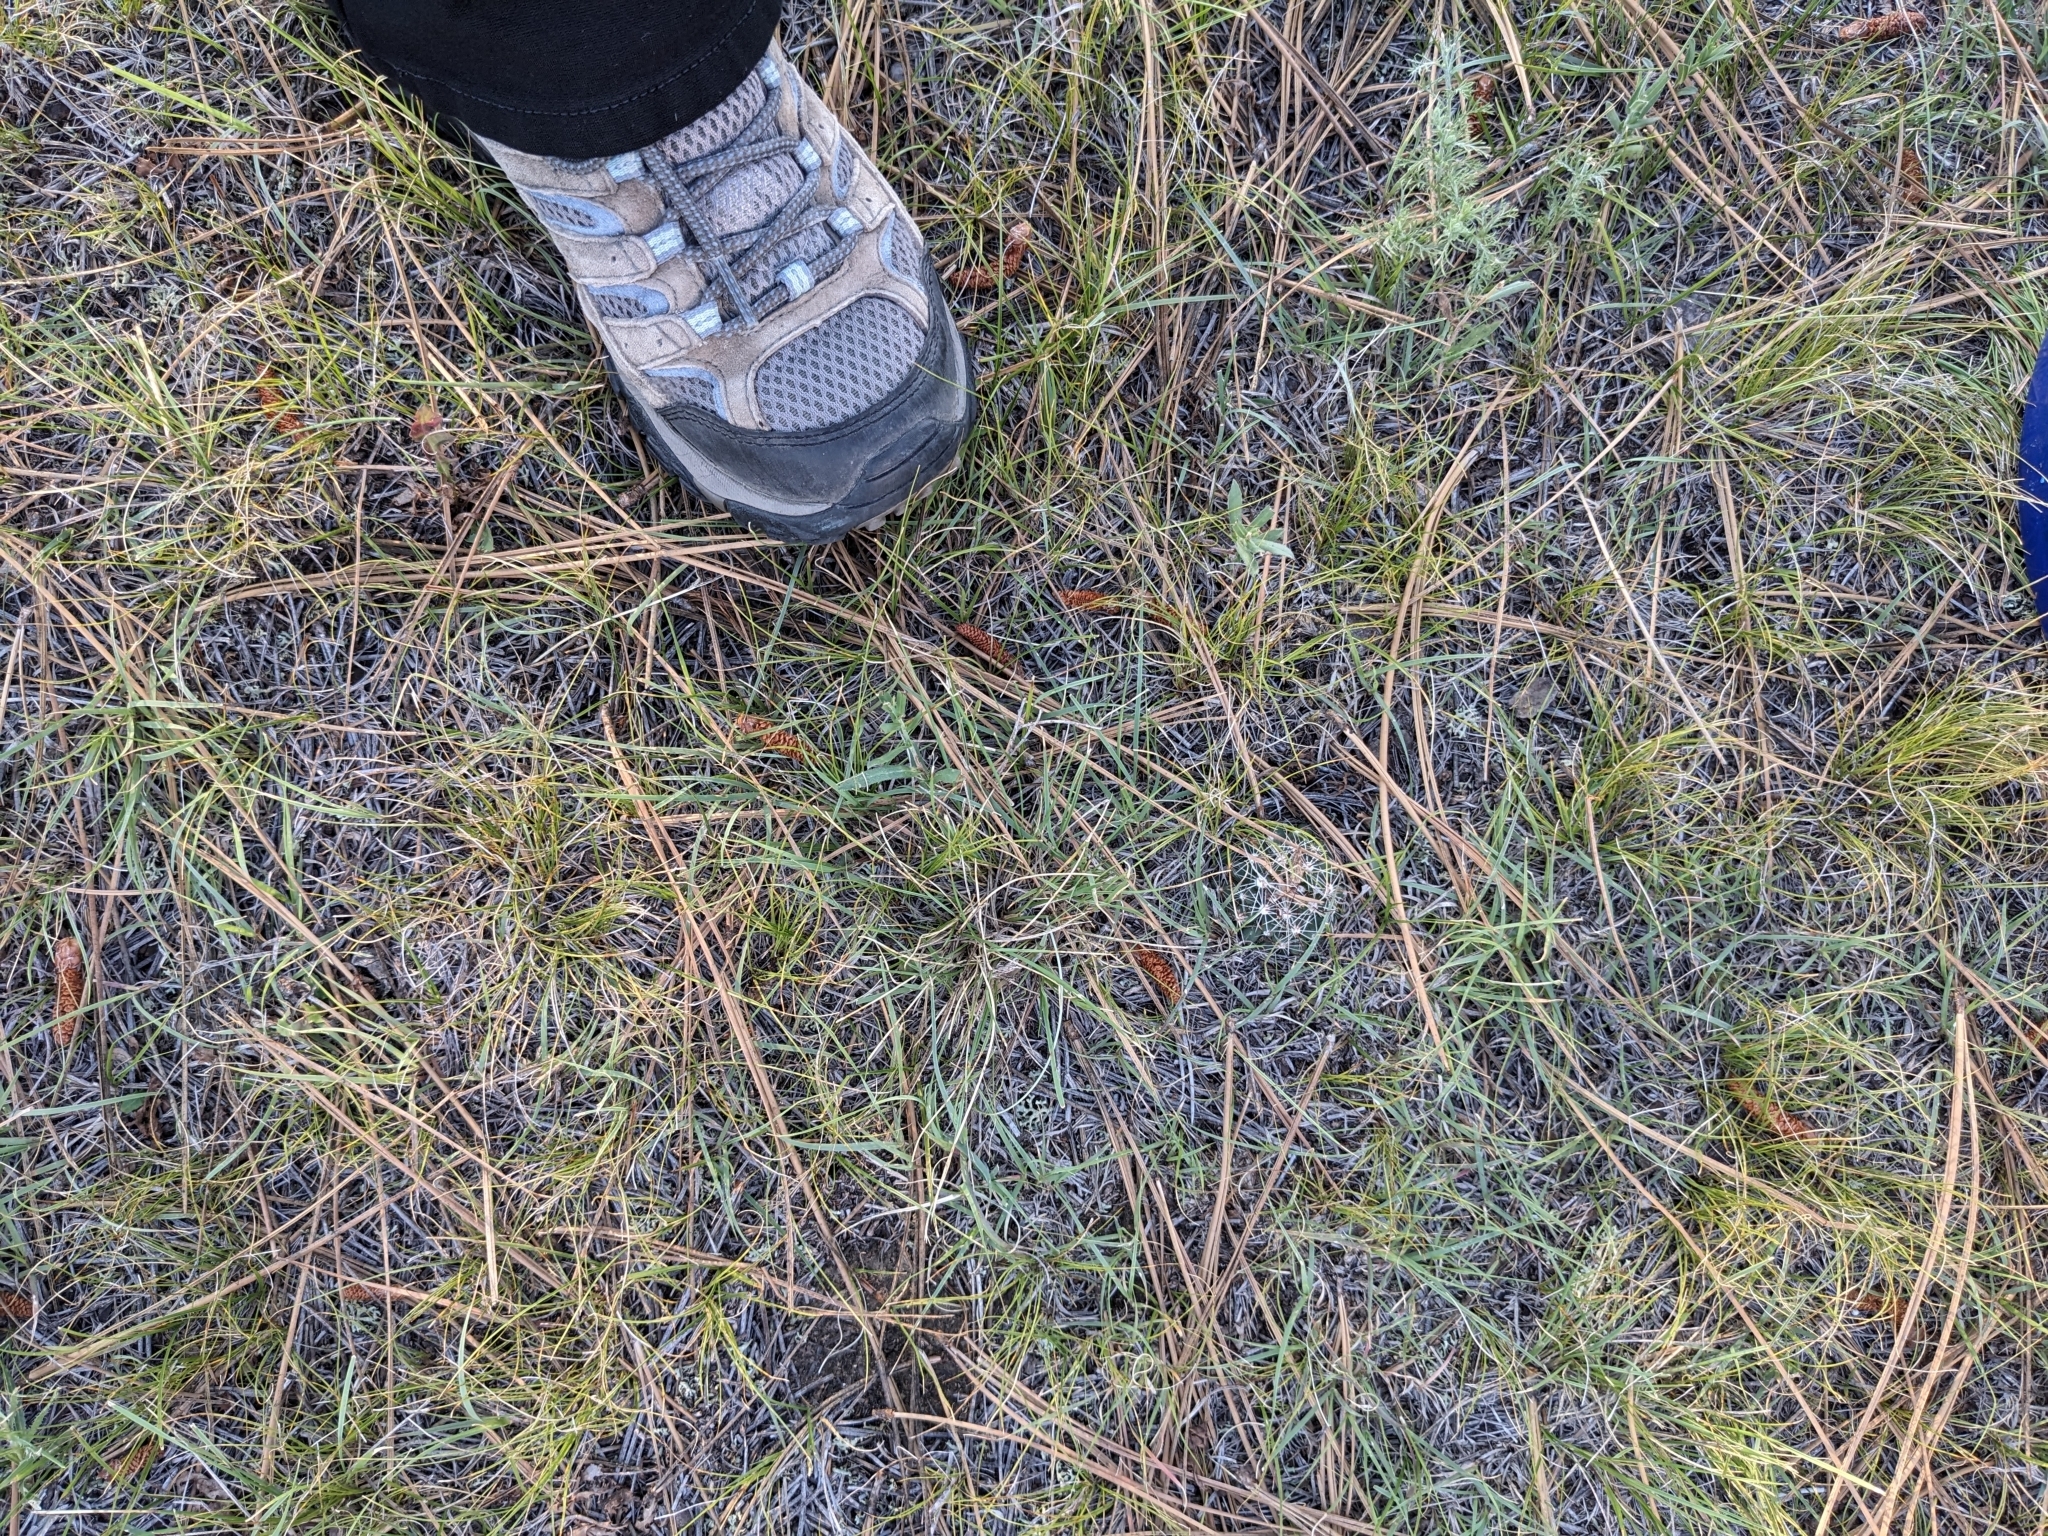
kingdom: Plantae
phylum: Tracheophyta
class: Magnoliopsida
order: Caryophyllales
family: Cactaceae
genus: Pelecyphora
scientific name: Pelecyphora vivipara
